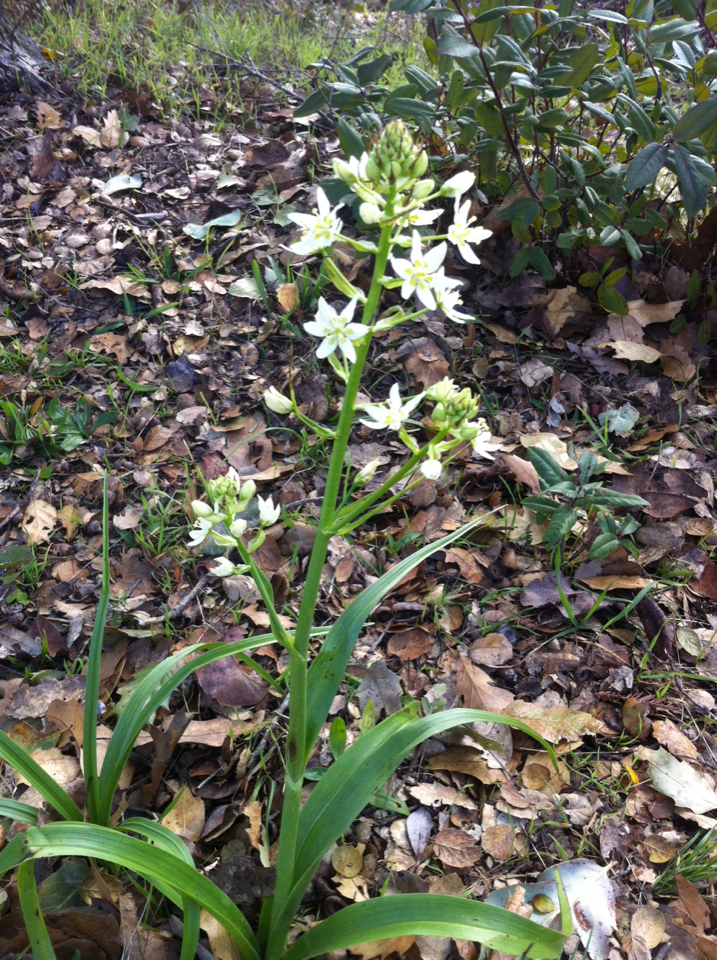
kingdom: Plantae
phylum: Tracheophyta
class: Liliopsida
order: Liliales
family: Melanthiaceae
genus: Toxicoscordion
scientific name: Toxicoscordion fremontii
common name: Fremont's death camas
